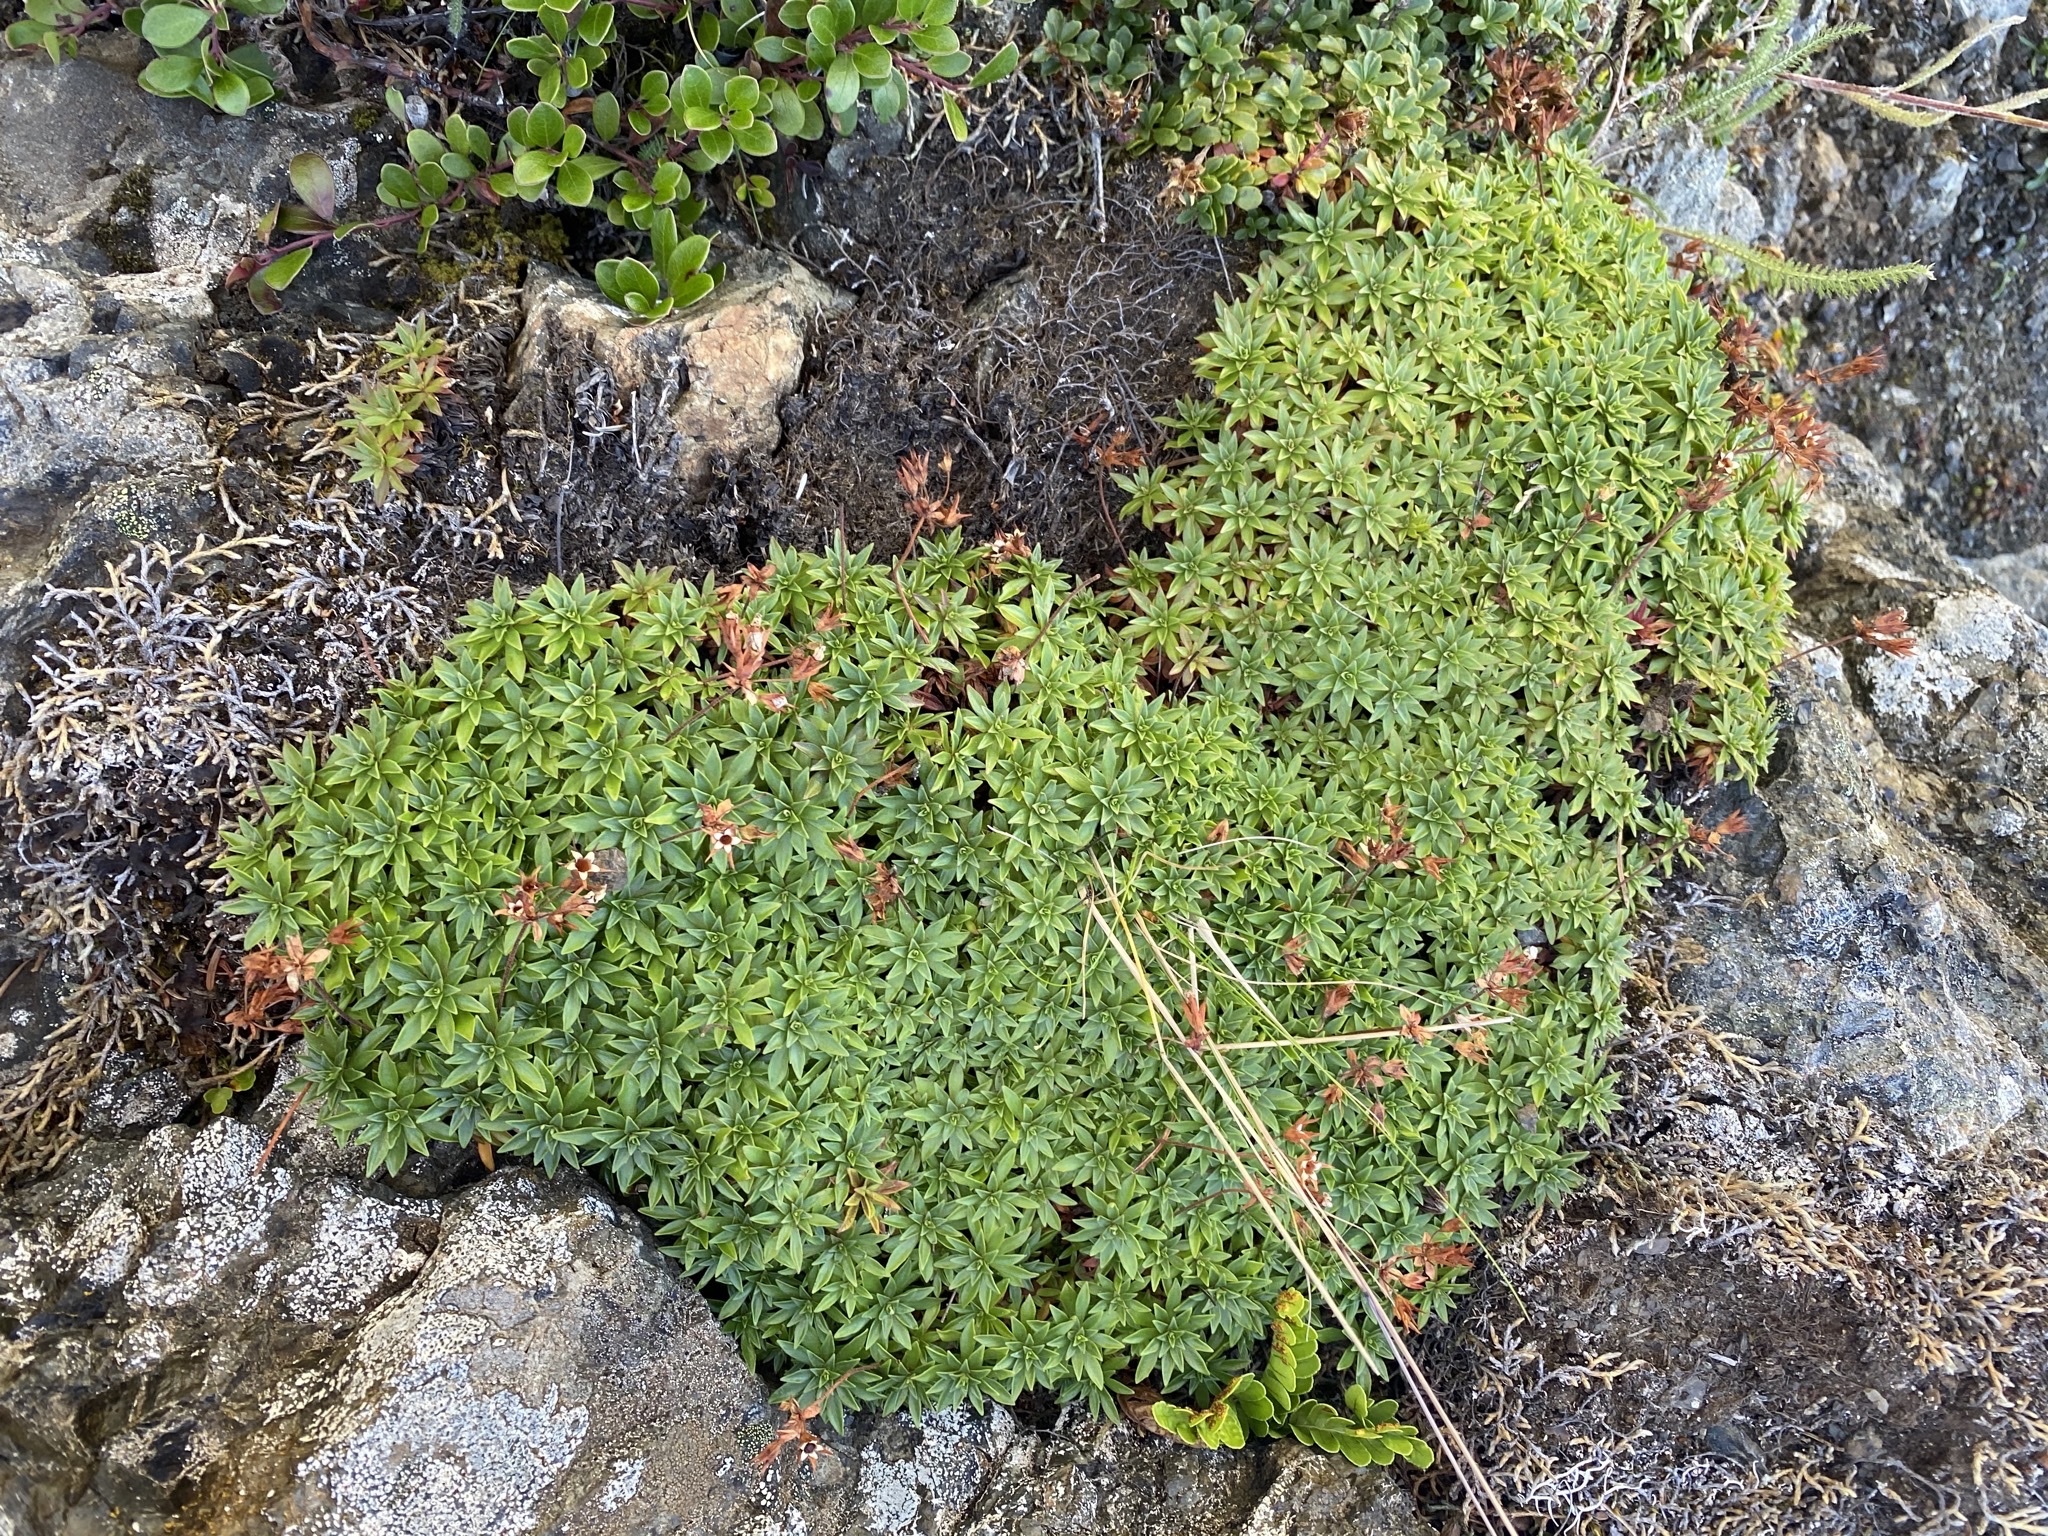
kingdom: Plantae
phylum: Tracheophyta
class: Magnoliopsida
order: Ericales
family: Primulaceae
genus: Androsace
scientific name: Androsace laevigata
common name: Cliff dwarf-primrose
